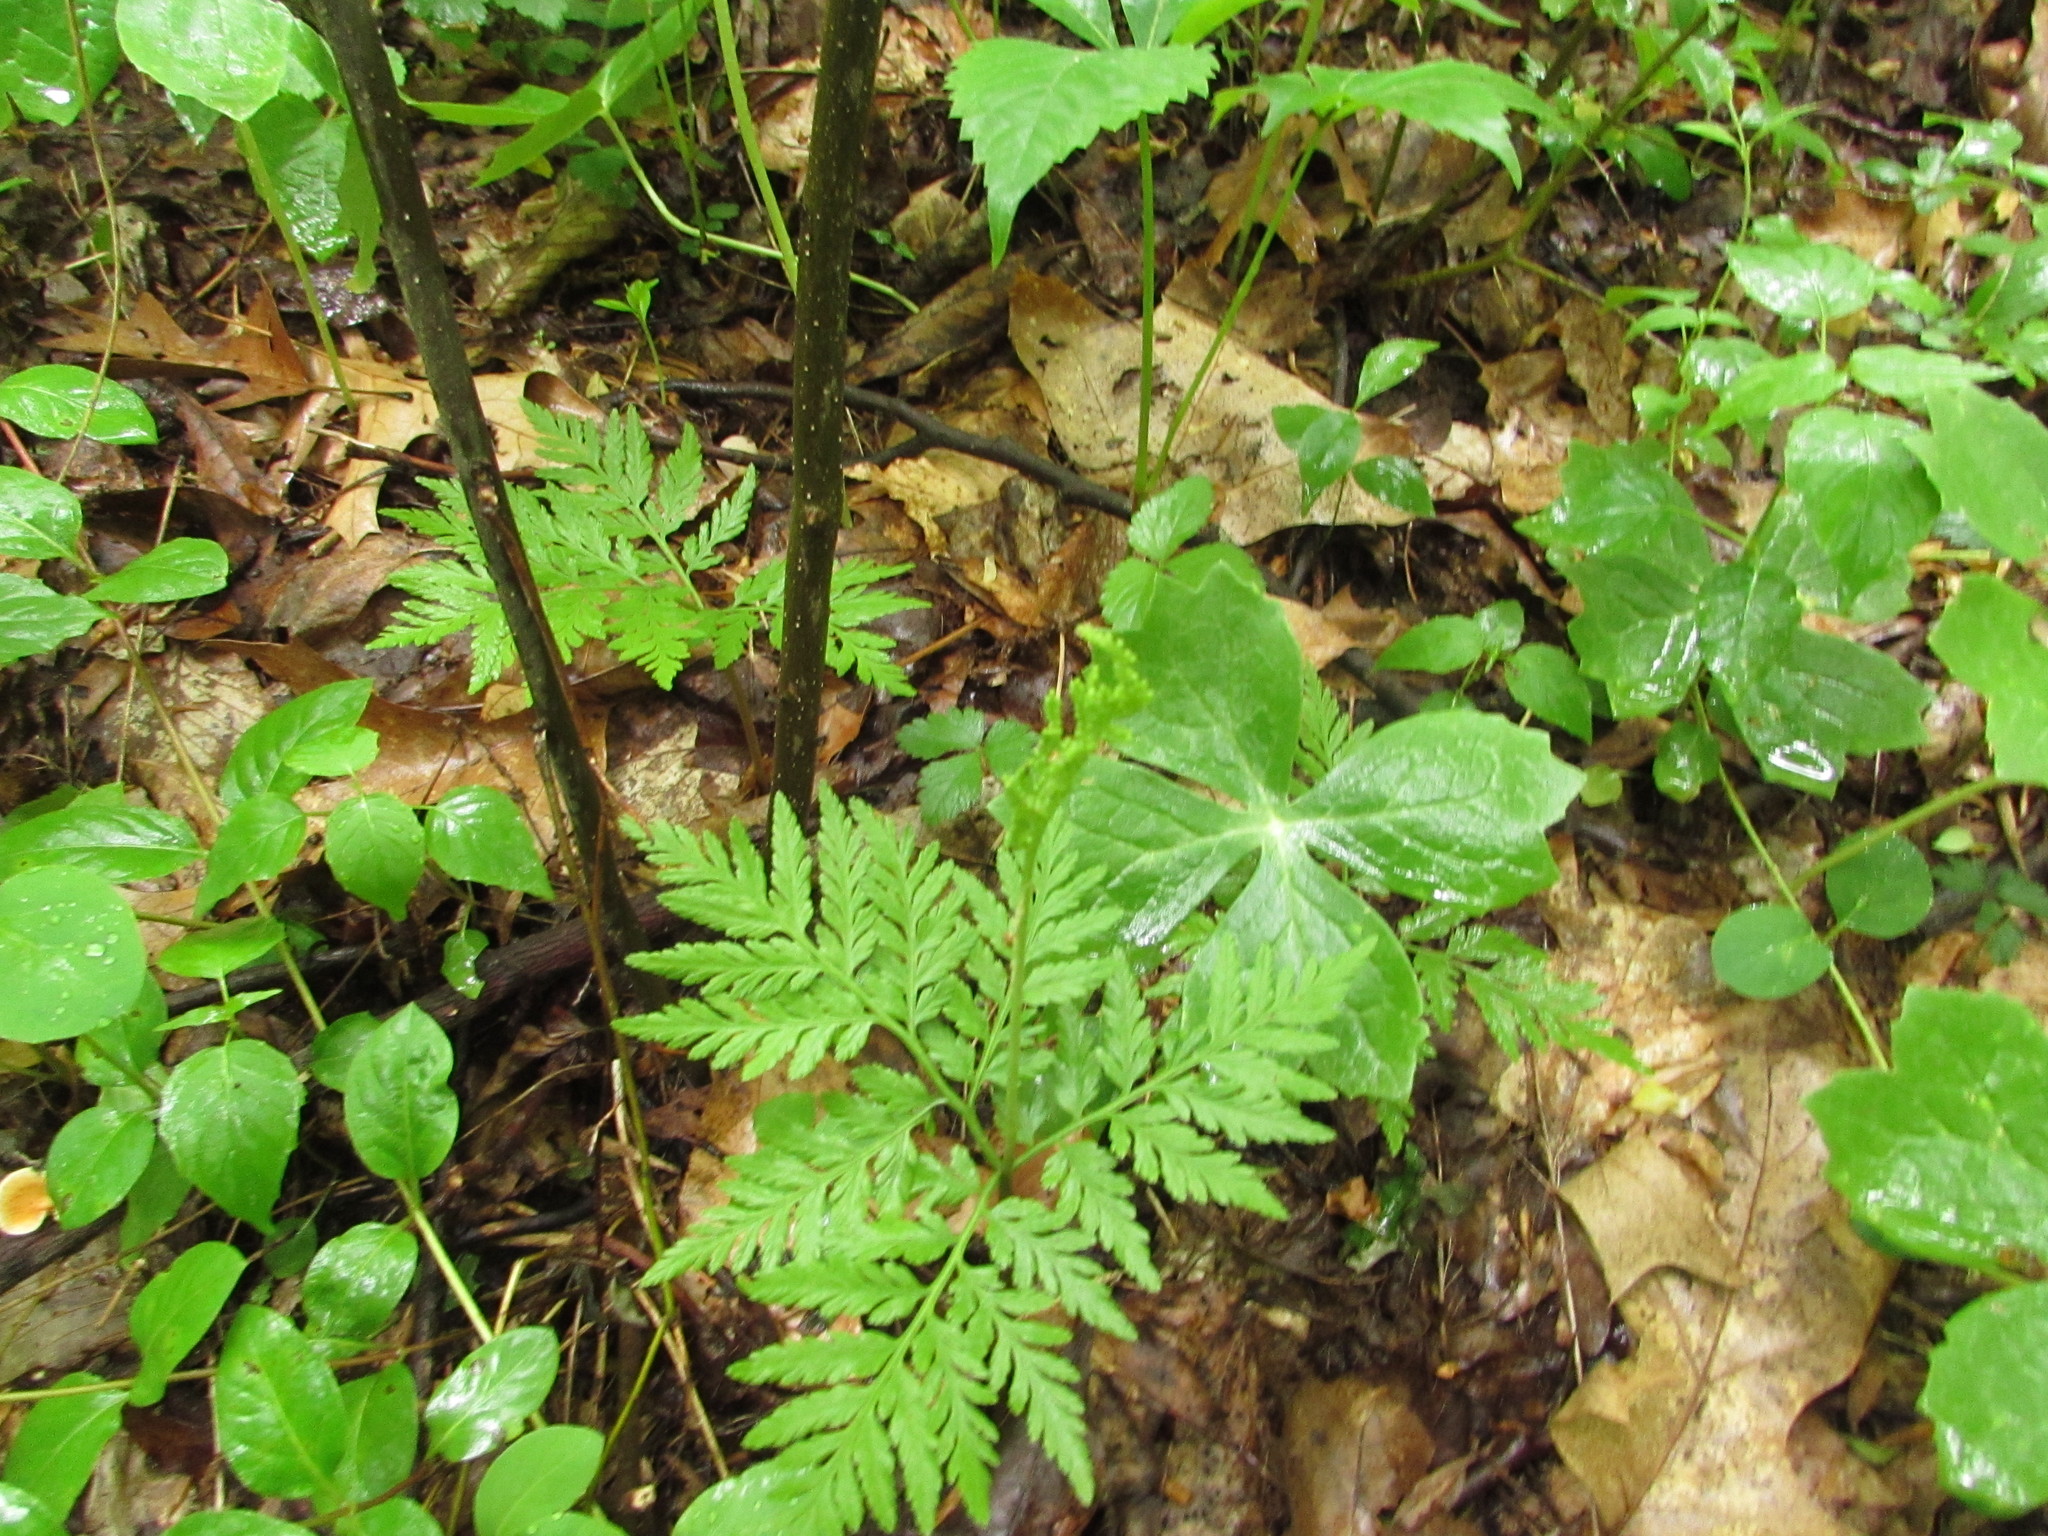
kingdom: Plantae
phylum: Tracheophyta
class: Polypodiopsida
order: Ophioglossales
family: Ophioglossaceae
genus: Botrypus
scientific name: Botrypus virginianus
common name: Common grapefern
